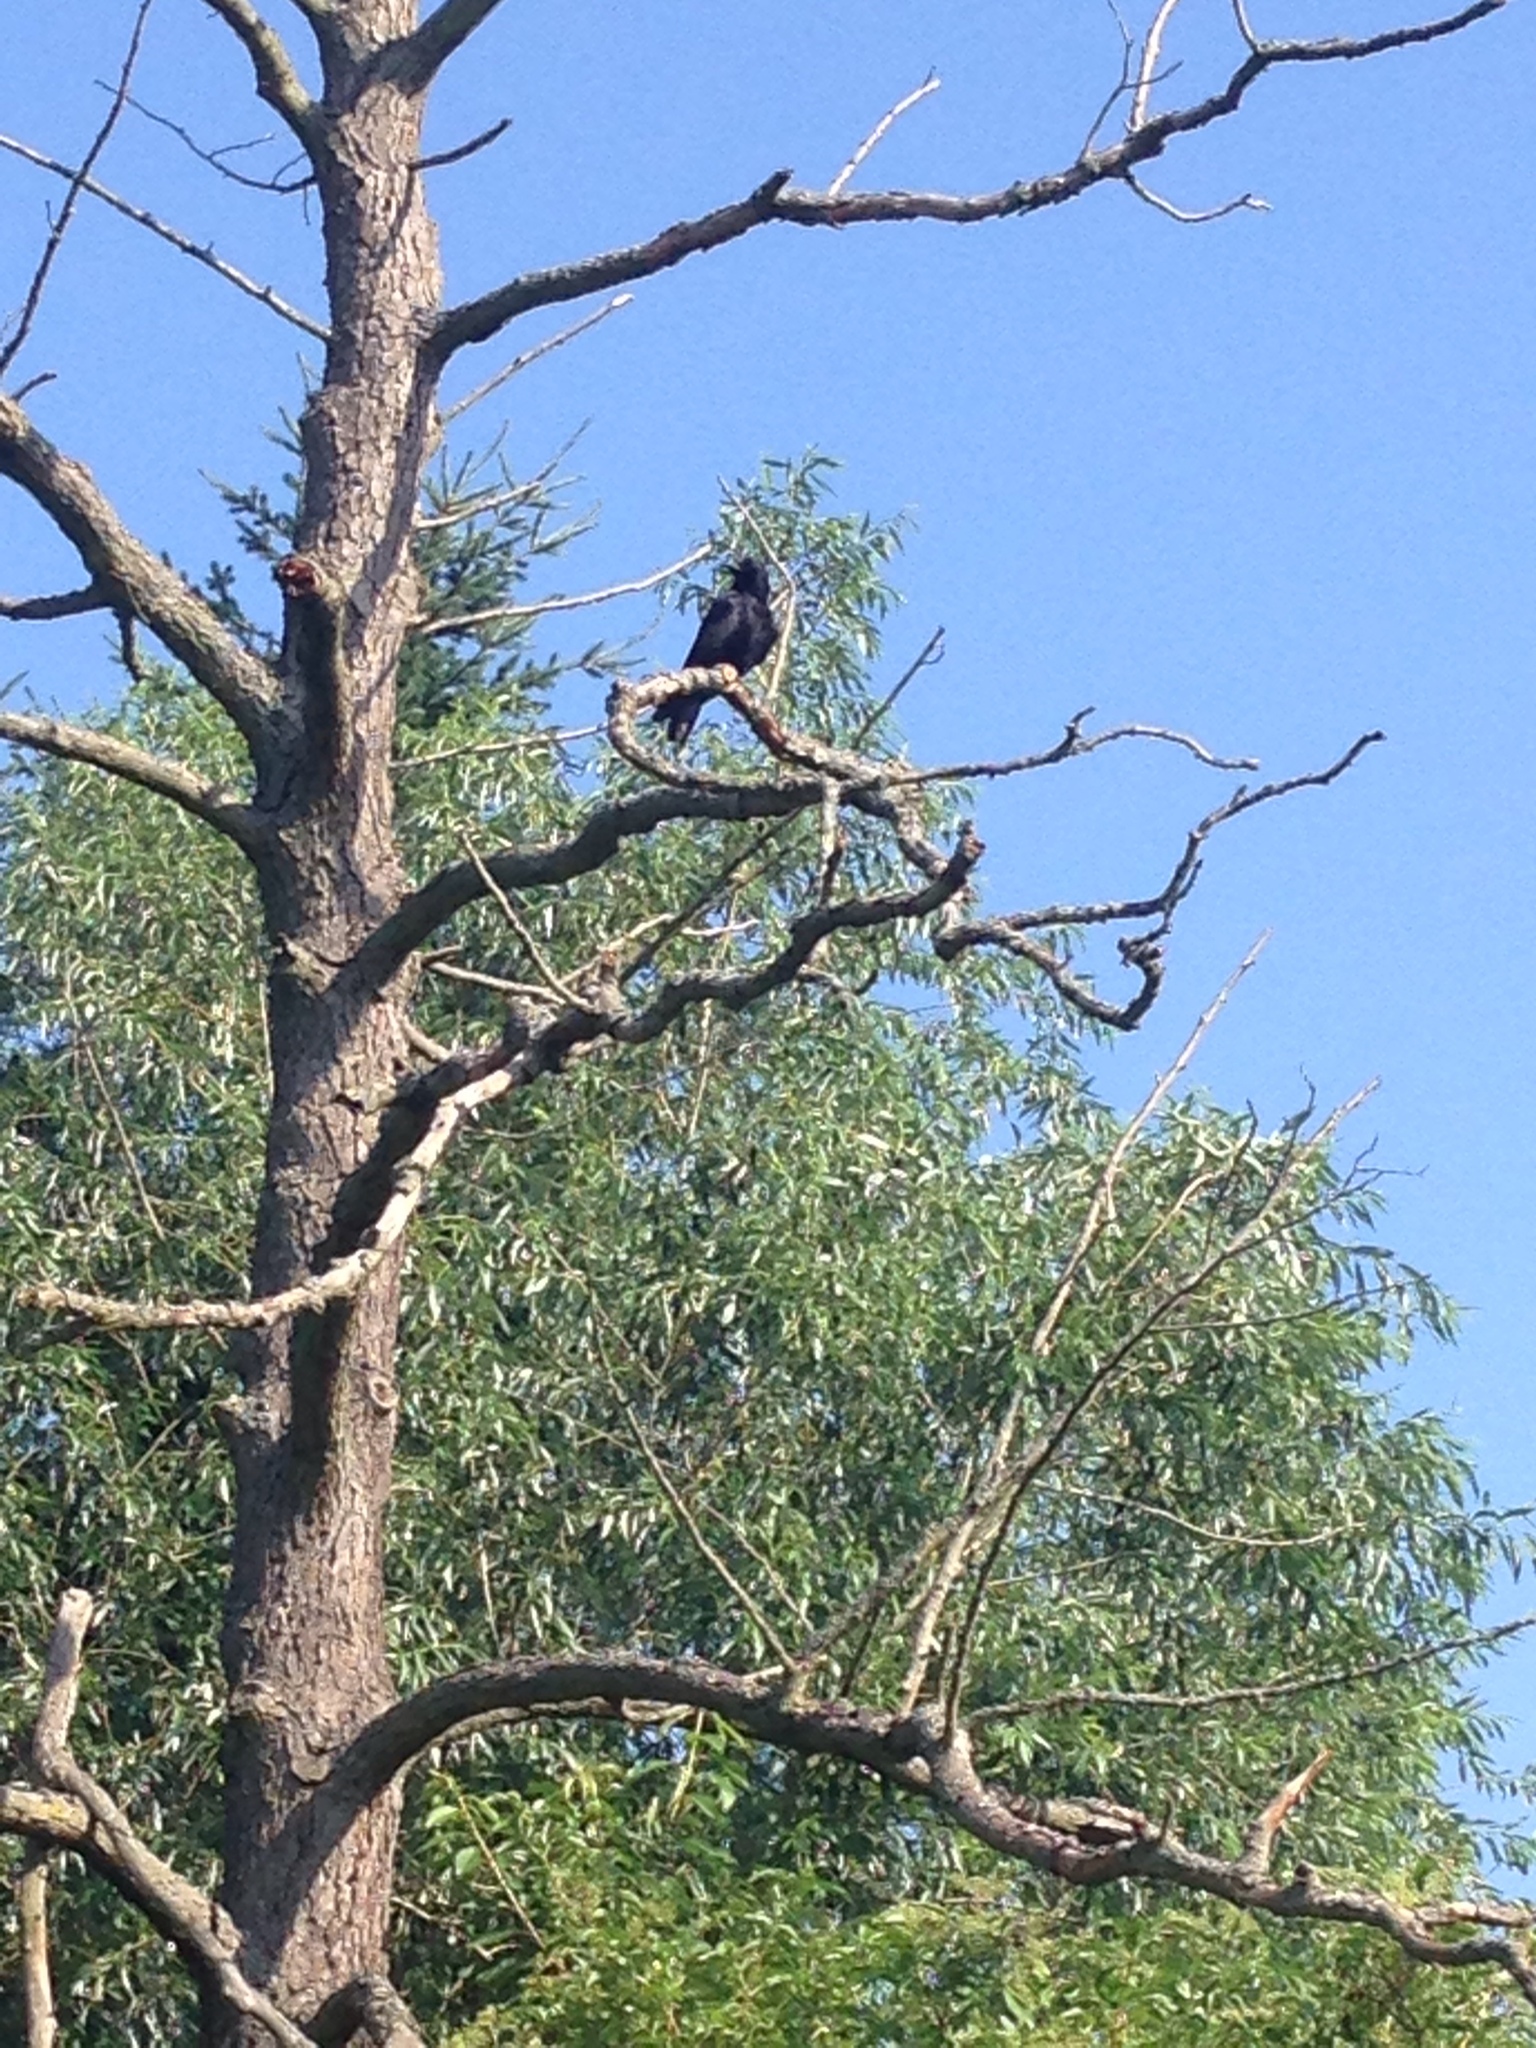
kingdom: Animalia
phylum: Chordata
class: Aves
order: Passeriformes
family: Corvidae
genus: Corvus
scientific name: Corvus corone
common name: Carrion crow
